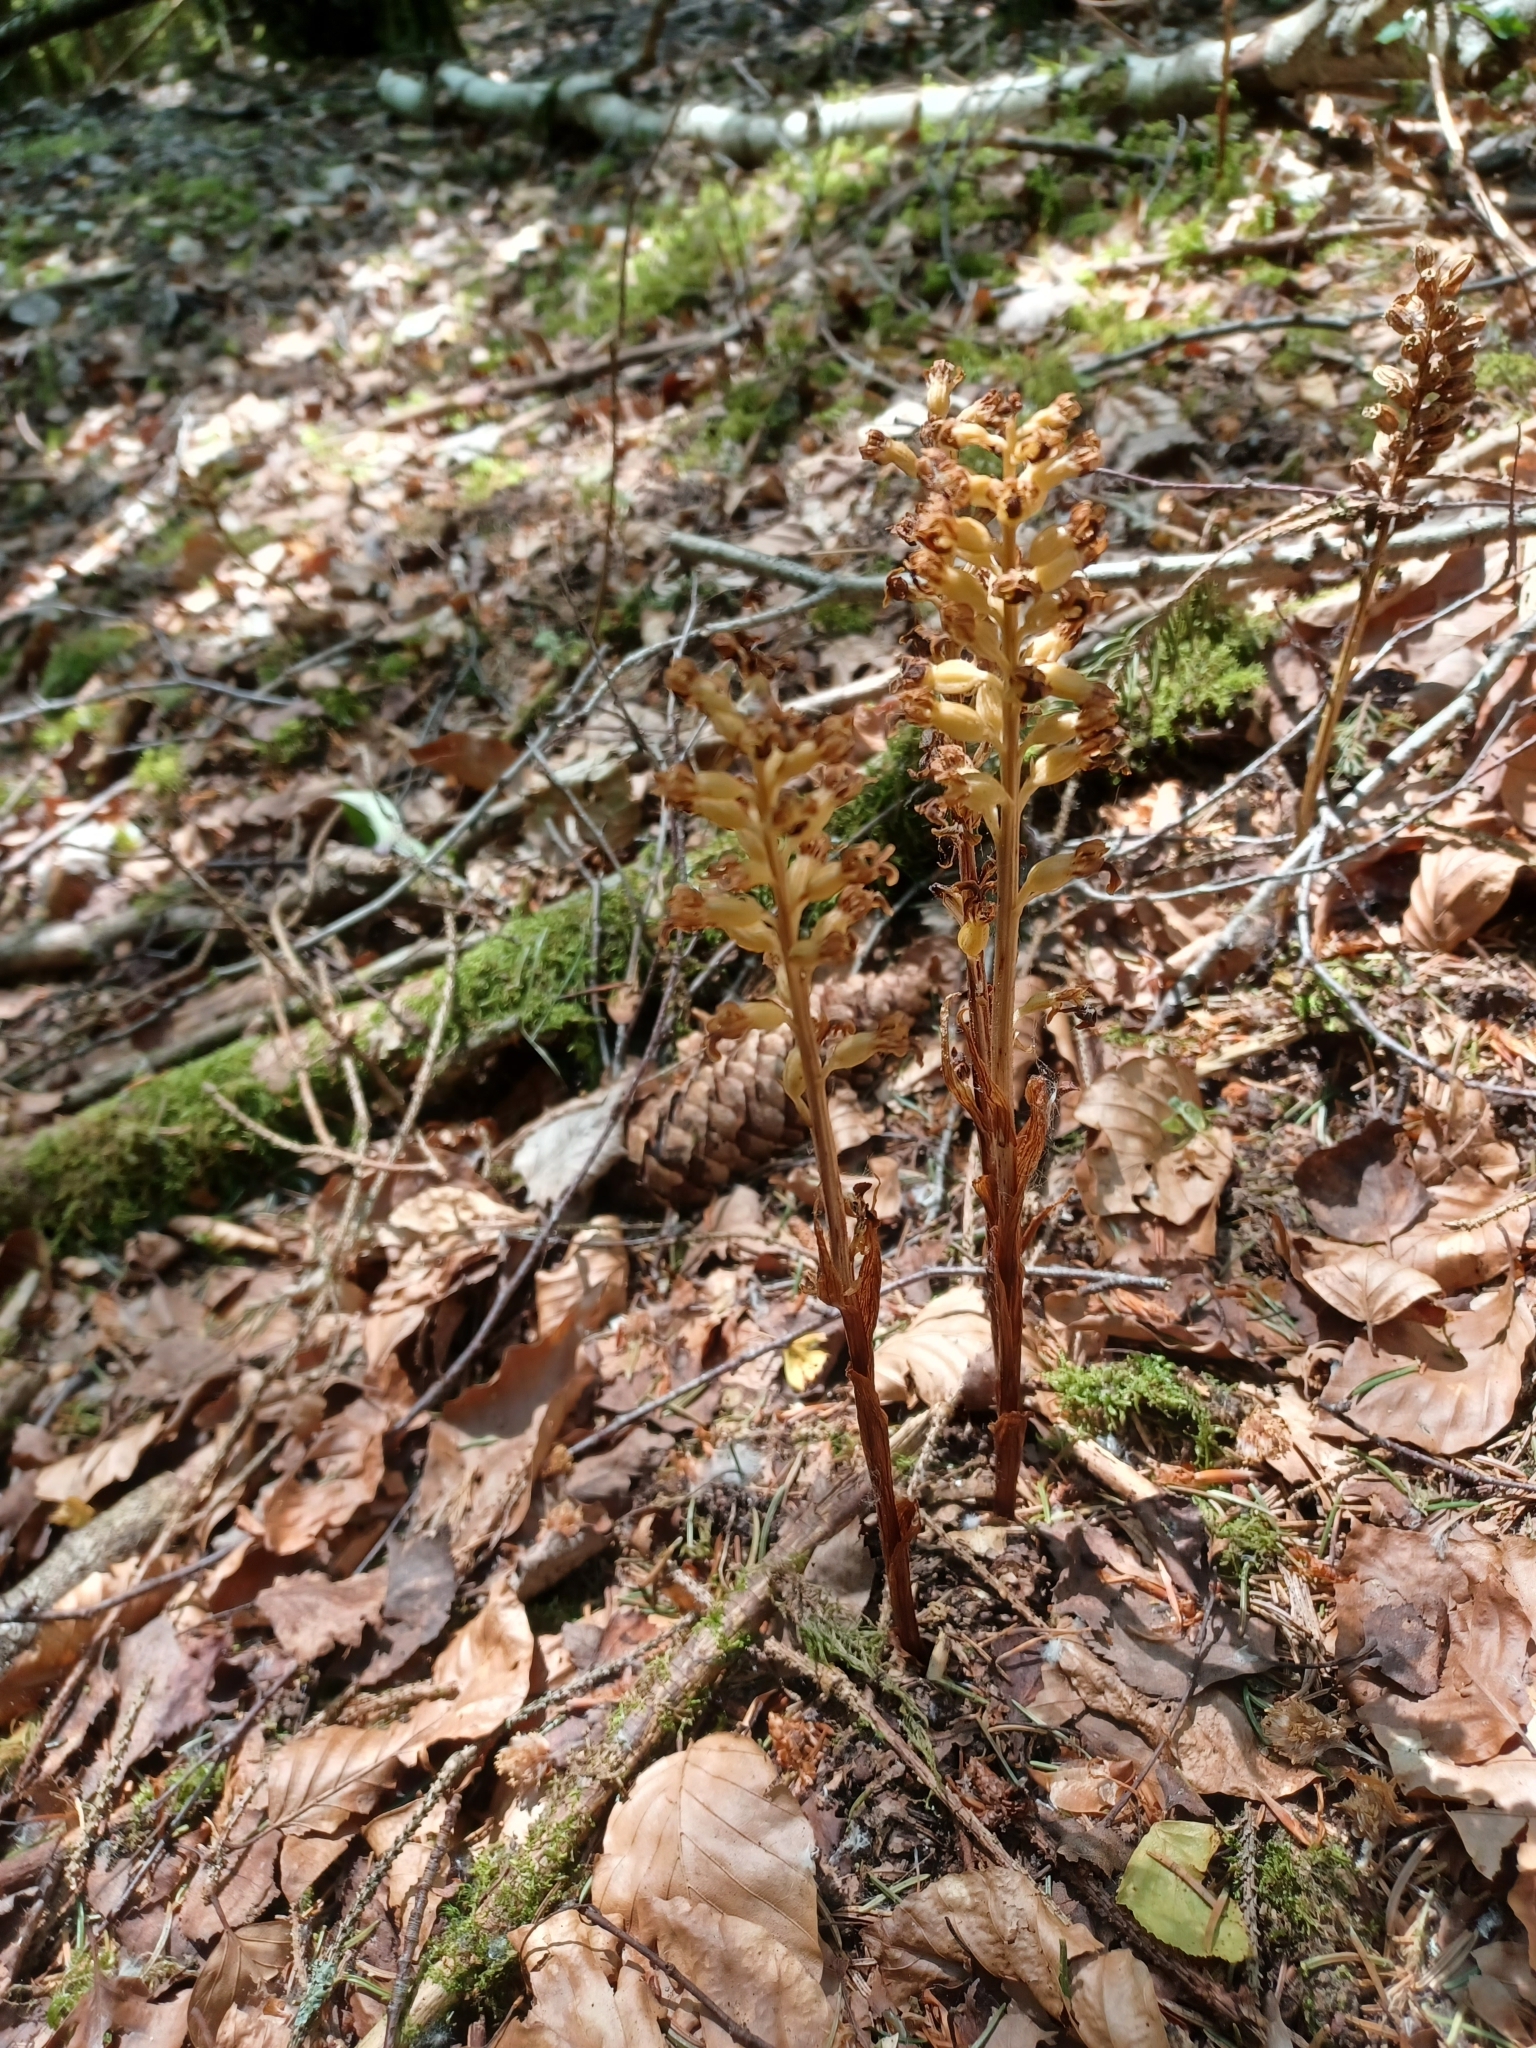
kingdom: Plantae
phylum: Tracheophyta
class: Liliopsida
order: Asparagales
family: Orchidaceae
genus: Neottia
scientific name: Neottia nidus-avis
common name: Bird's-nest orchid
